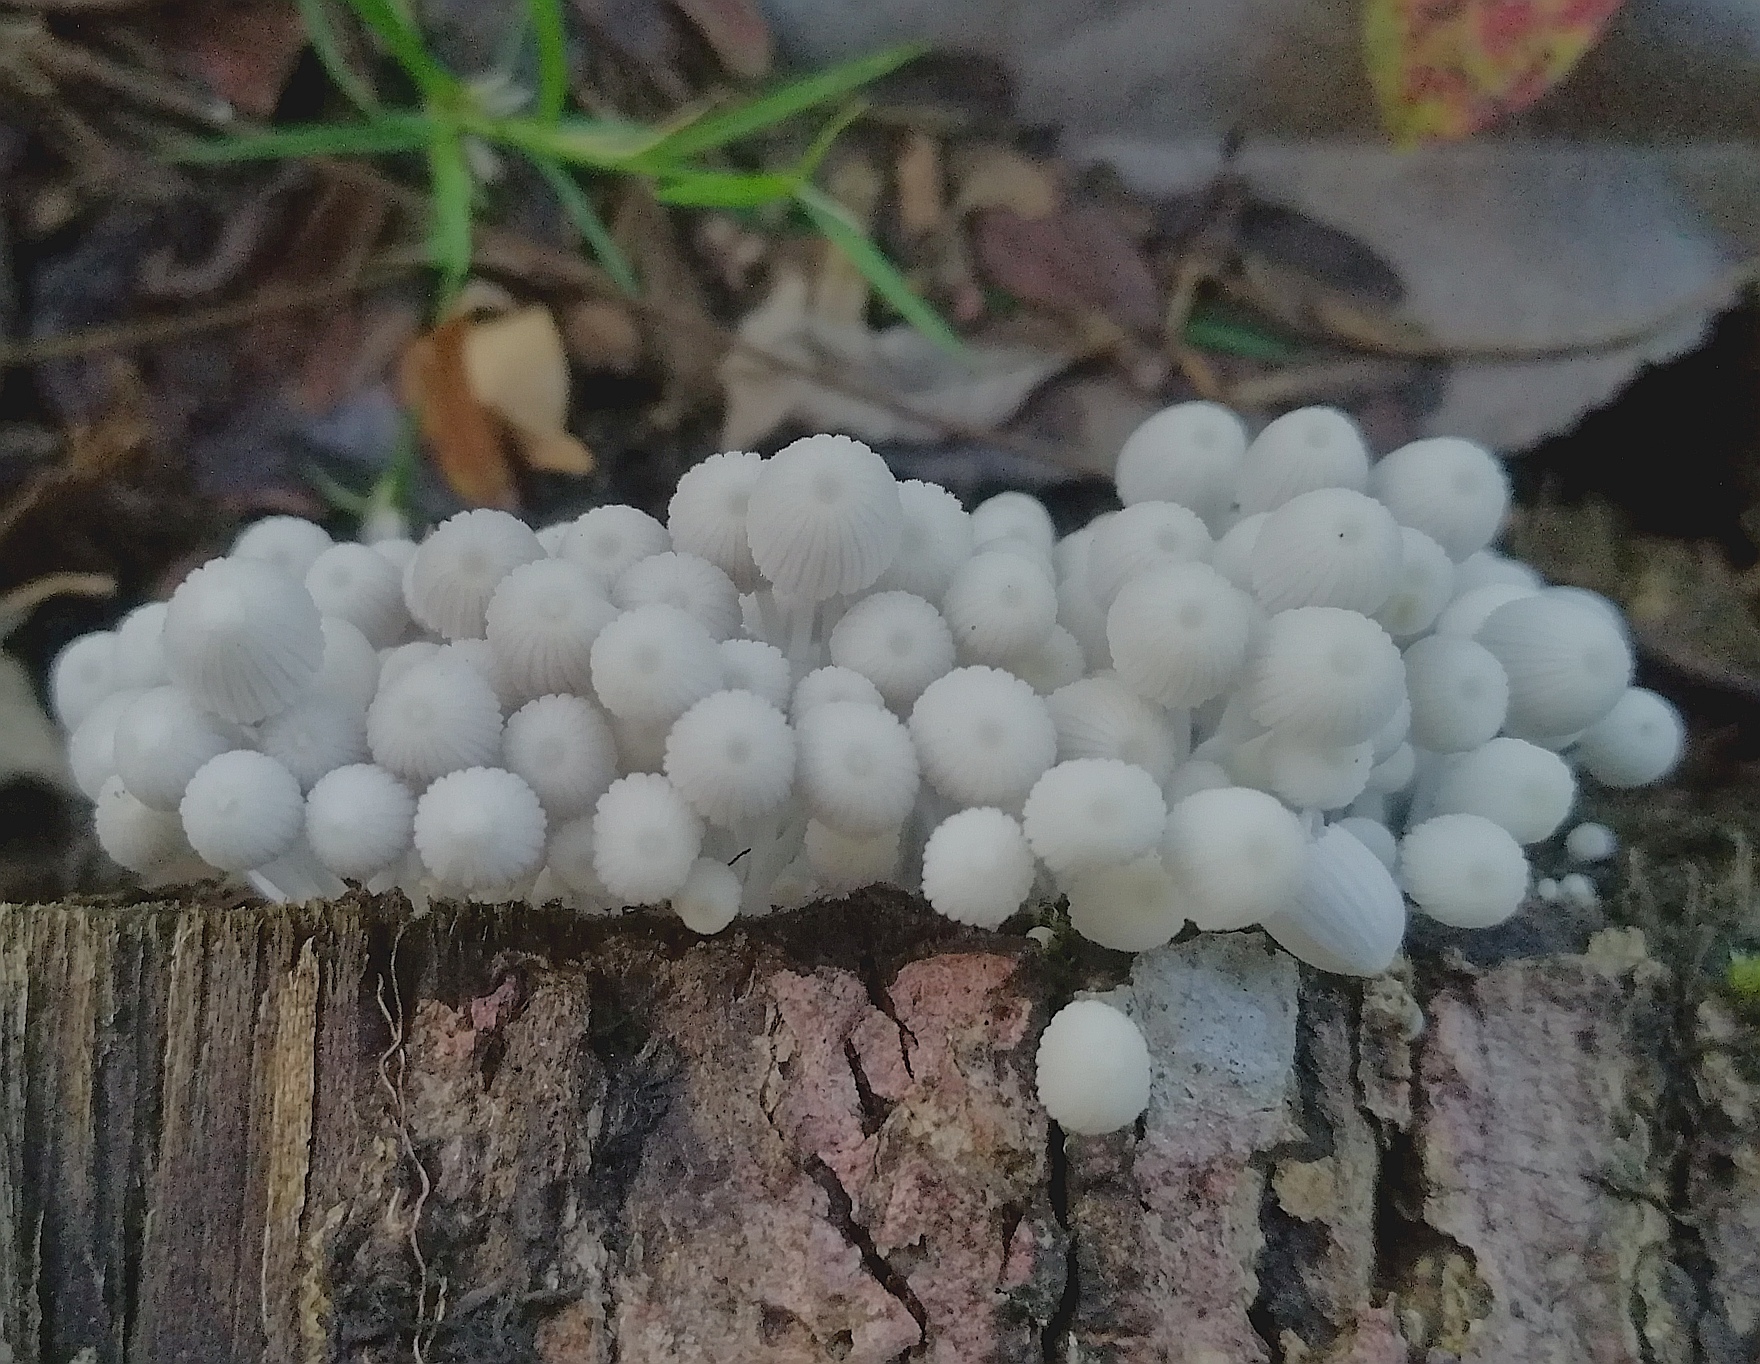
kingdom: Fungi
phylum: Basidiomycota
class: Agaricomycetes
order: Agaricales
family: Psathyrellaceae
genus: Coprinellus
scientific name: Coprinellus disseminatus
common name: Fairies' bonnets
